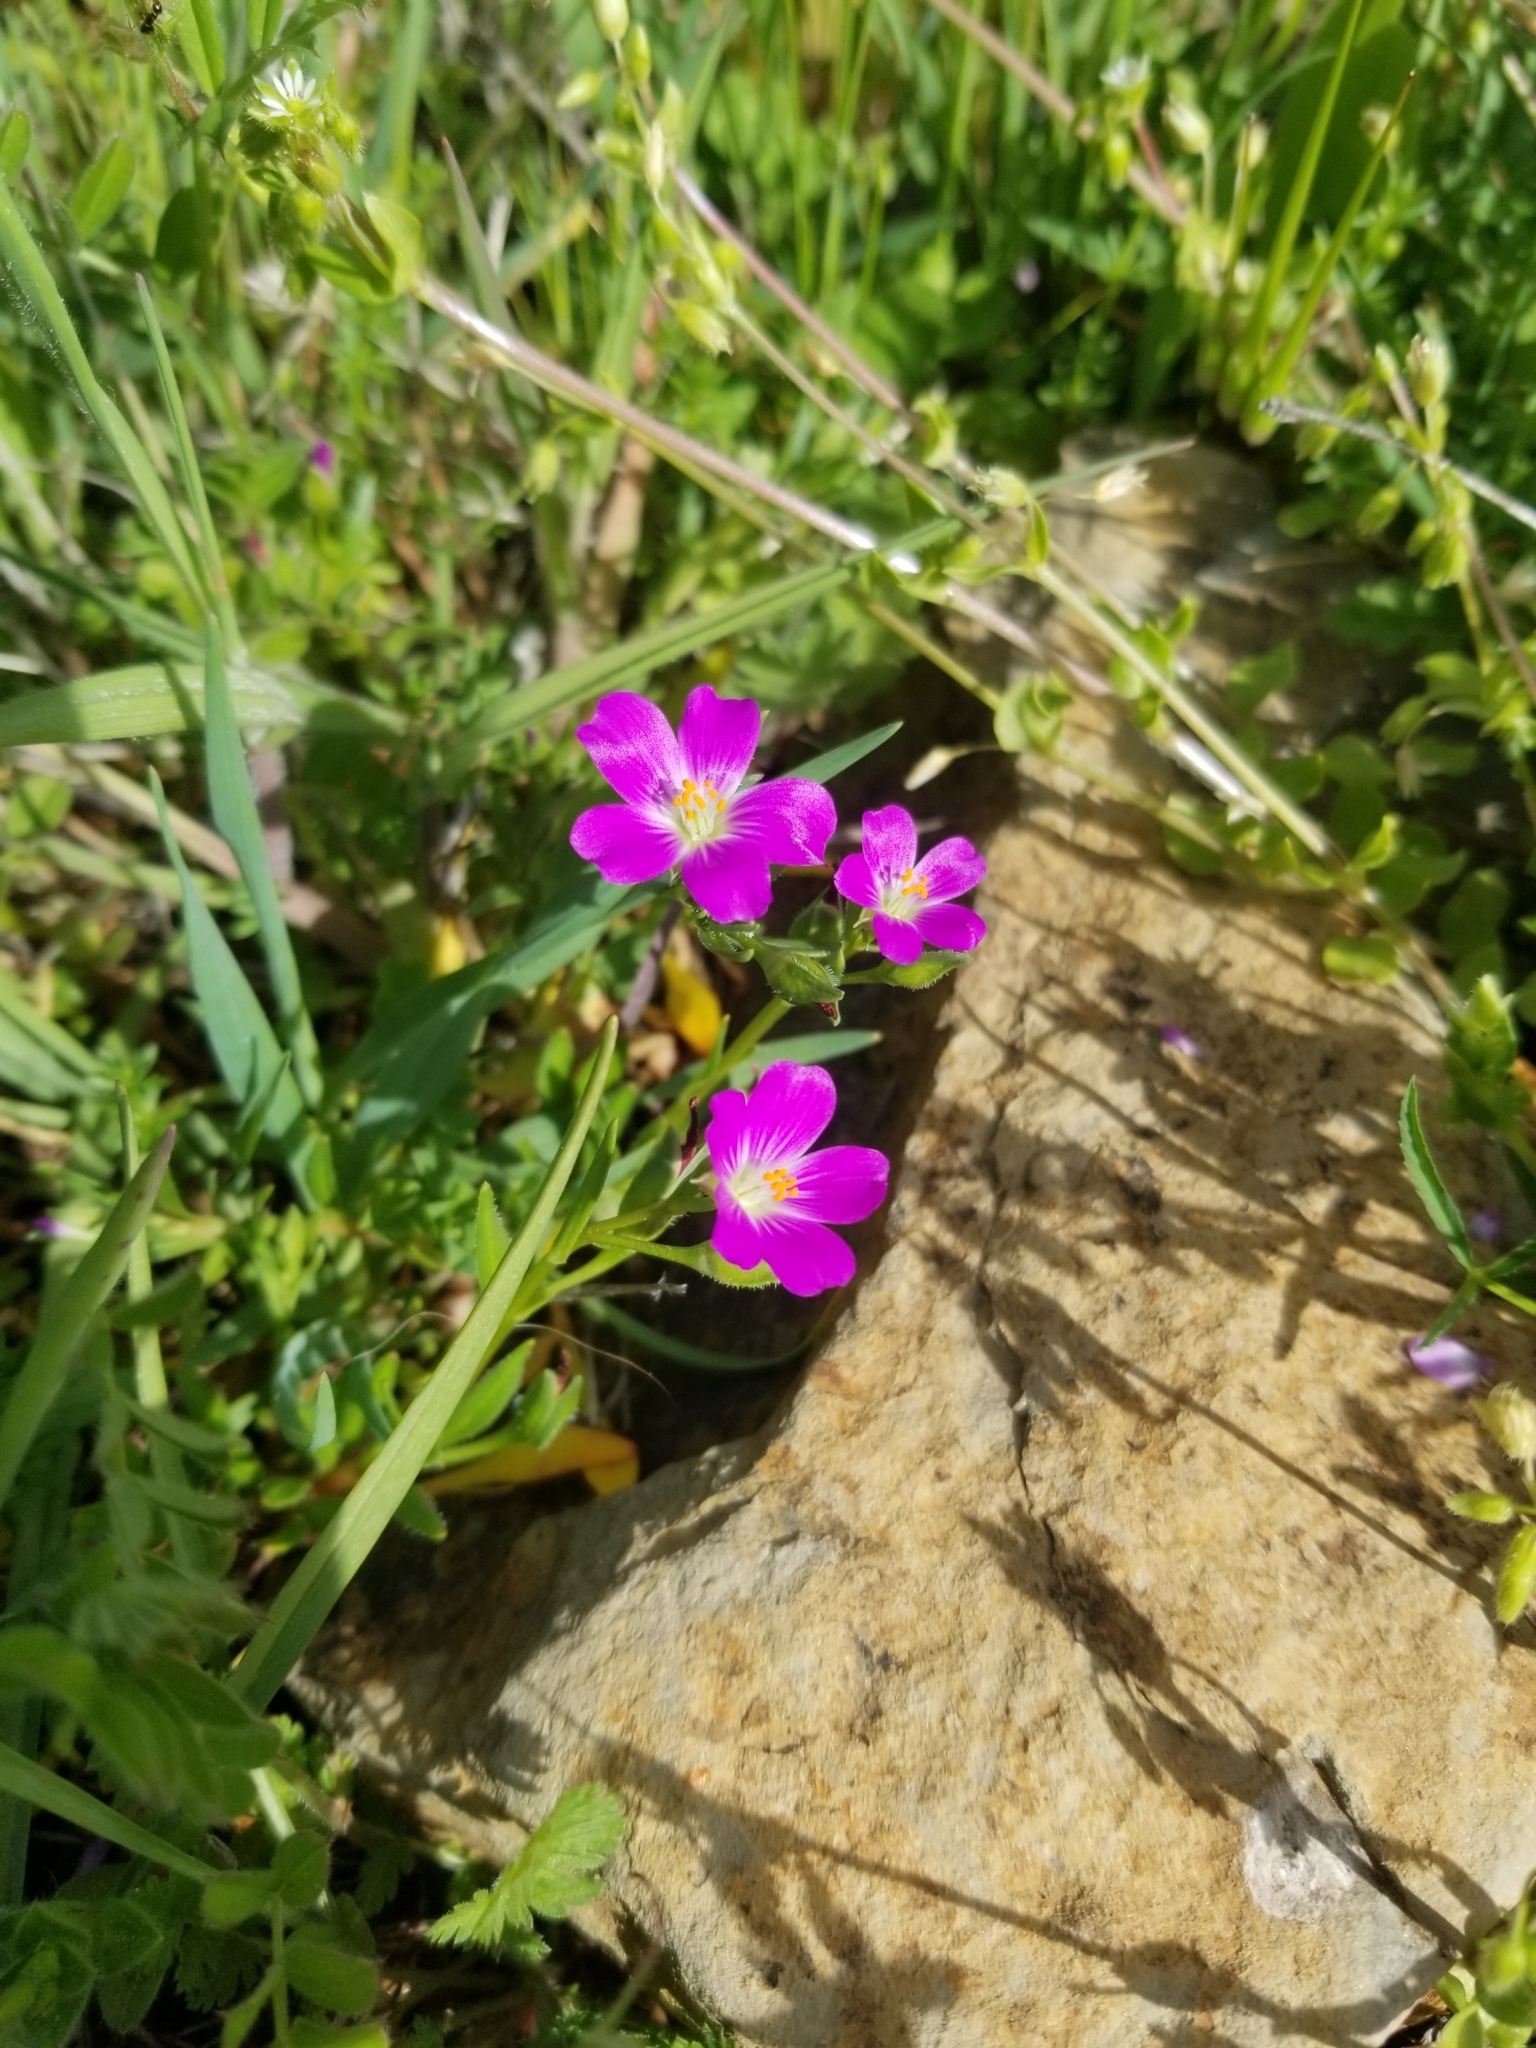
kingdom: Plantae
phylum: Tracheophyta
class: Magnoliopsida
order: Caryophyllales
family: Montiaceae
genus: Calandrinia
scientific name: Calandrinia menziesii
